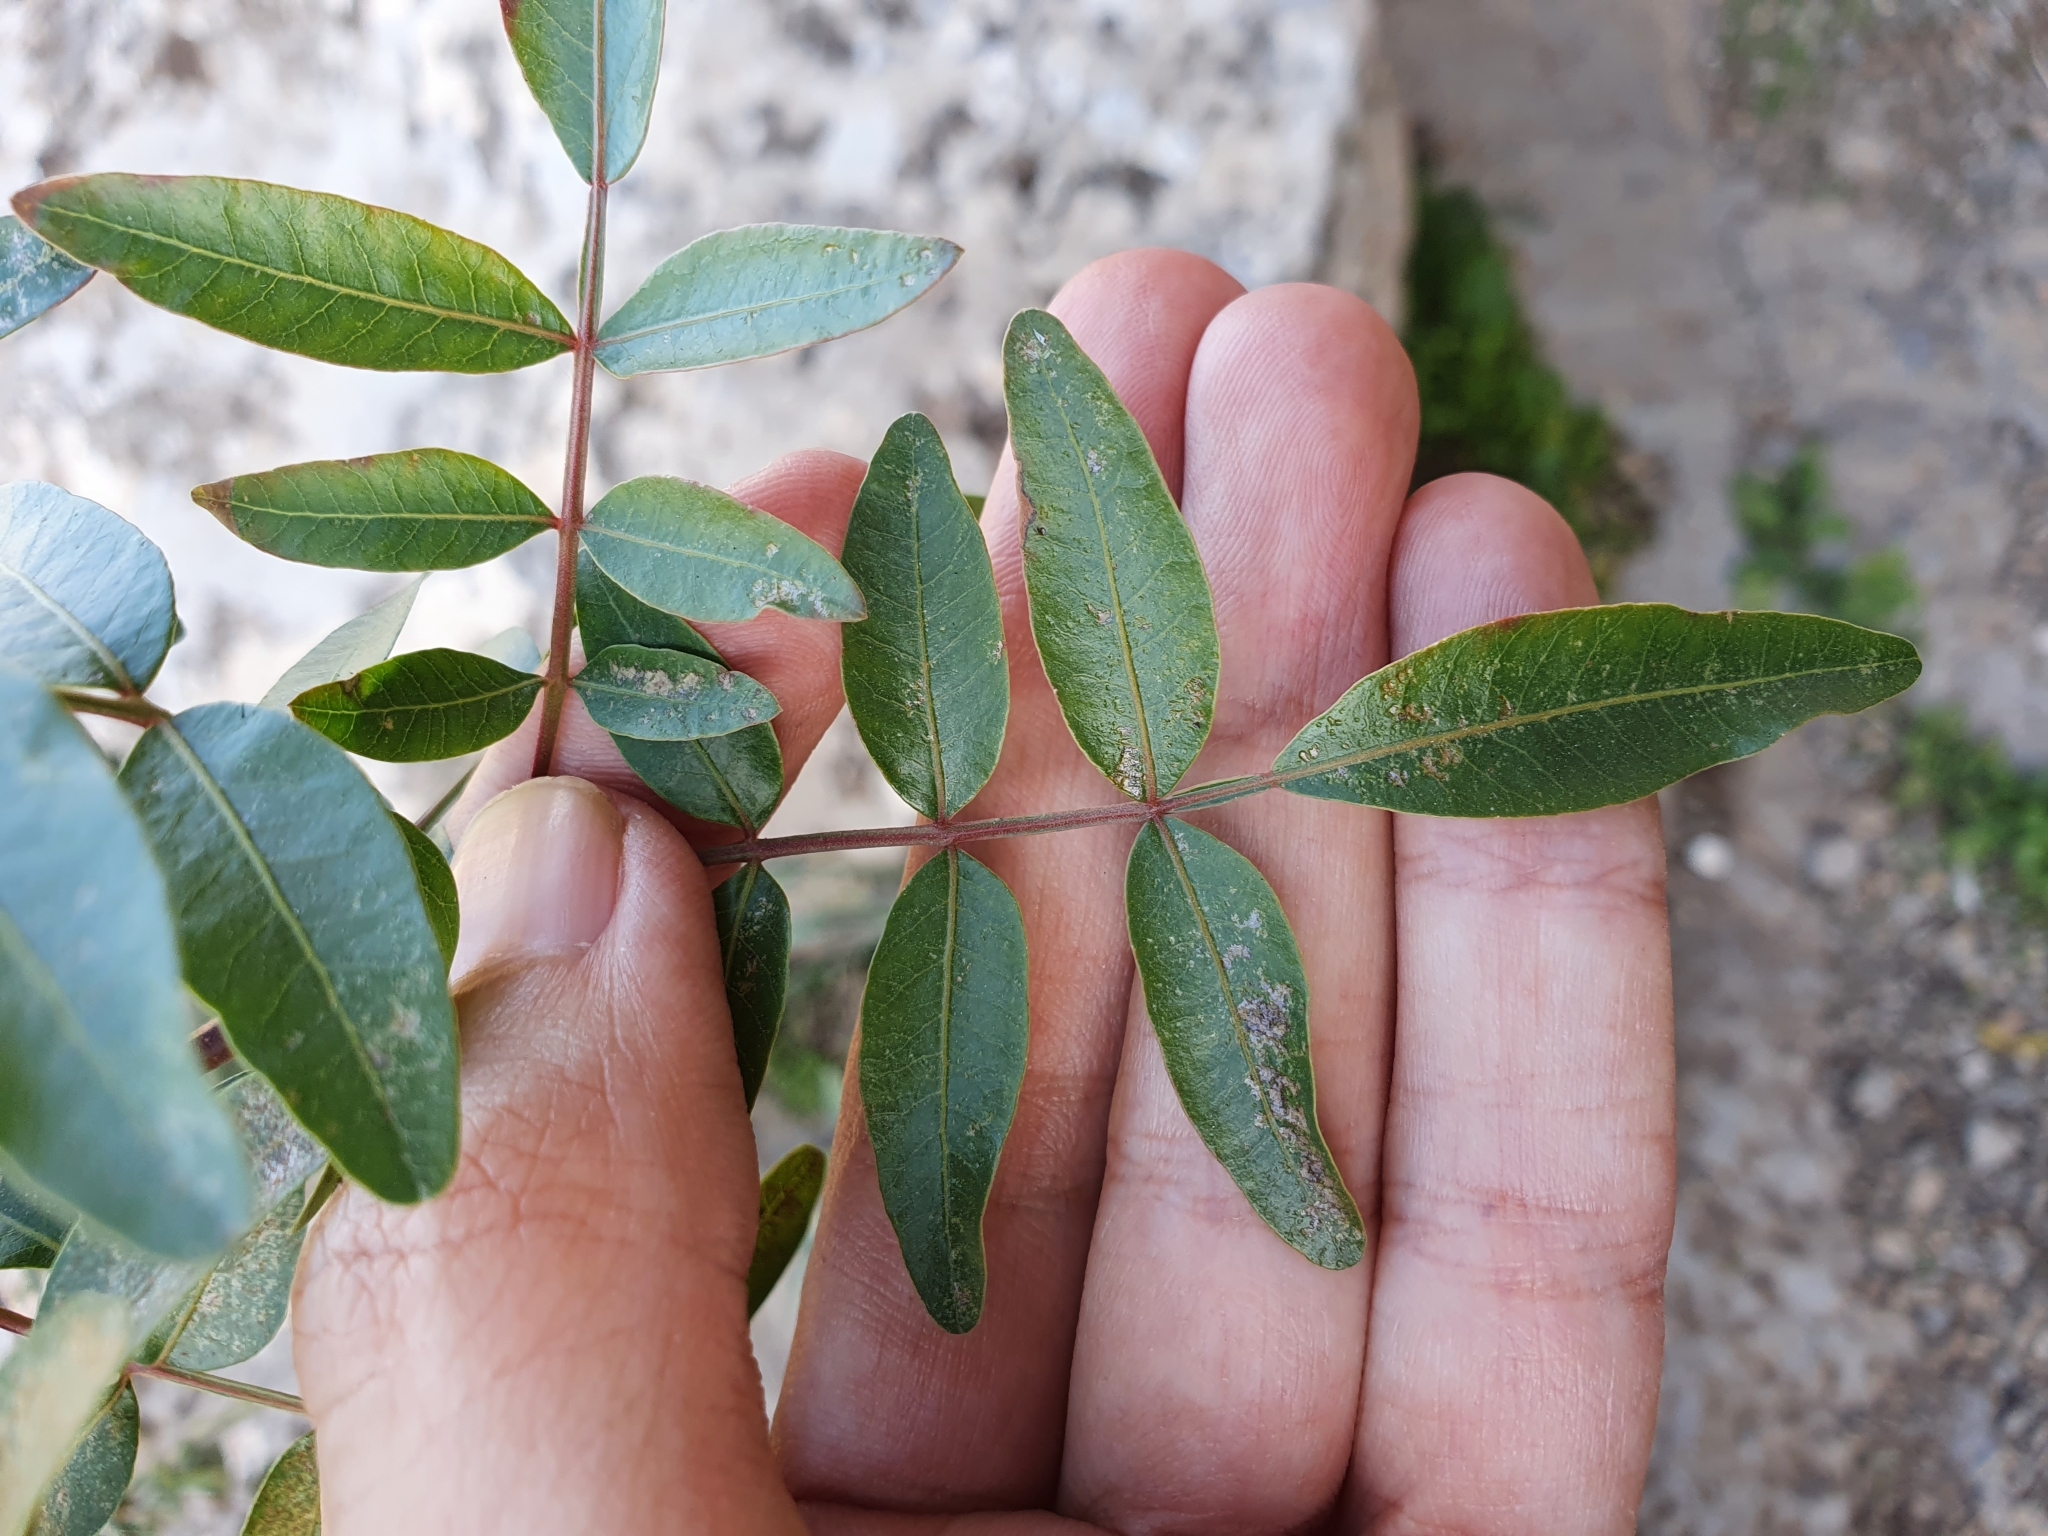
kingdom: Plantae
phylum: Tracheophyta
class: Magnoliopsida
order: Sapindales
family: Anacardiaceae
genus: Pistacia
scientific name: Pistacia atlantica
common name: Mt. atlas mastic tree
